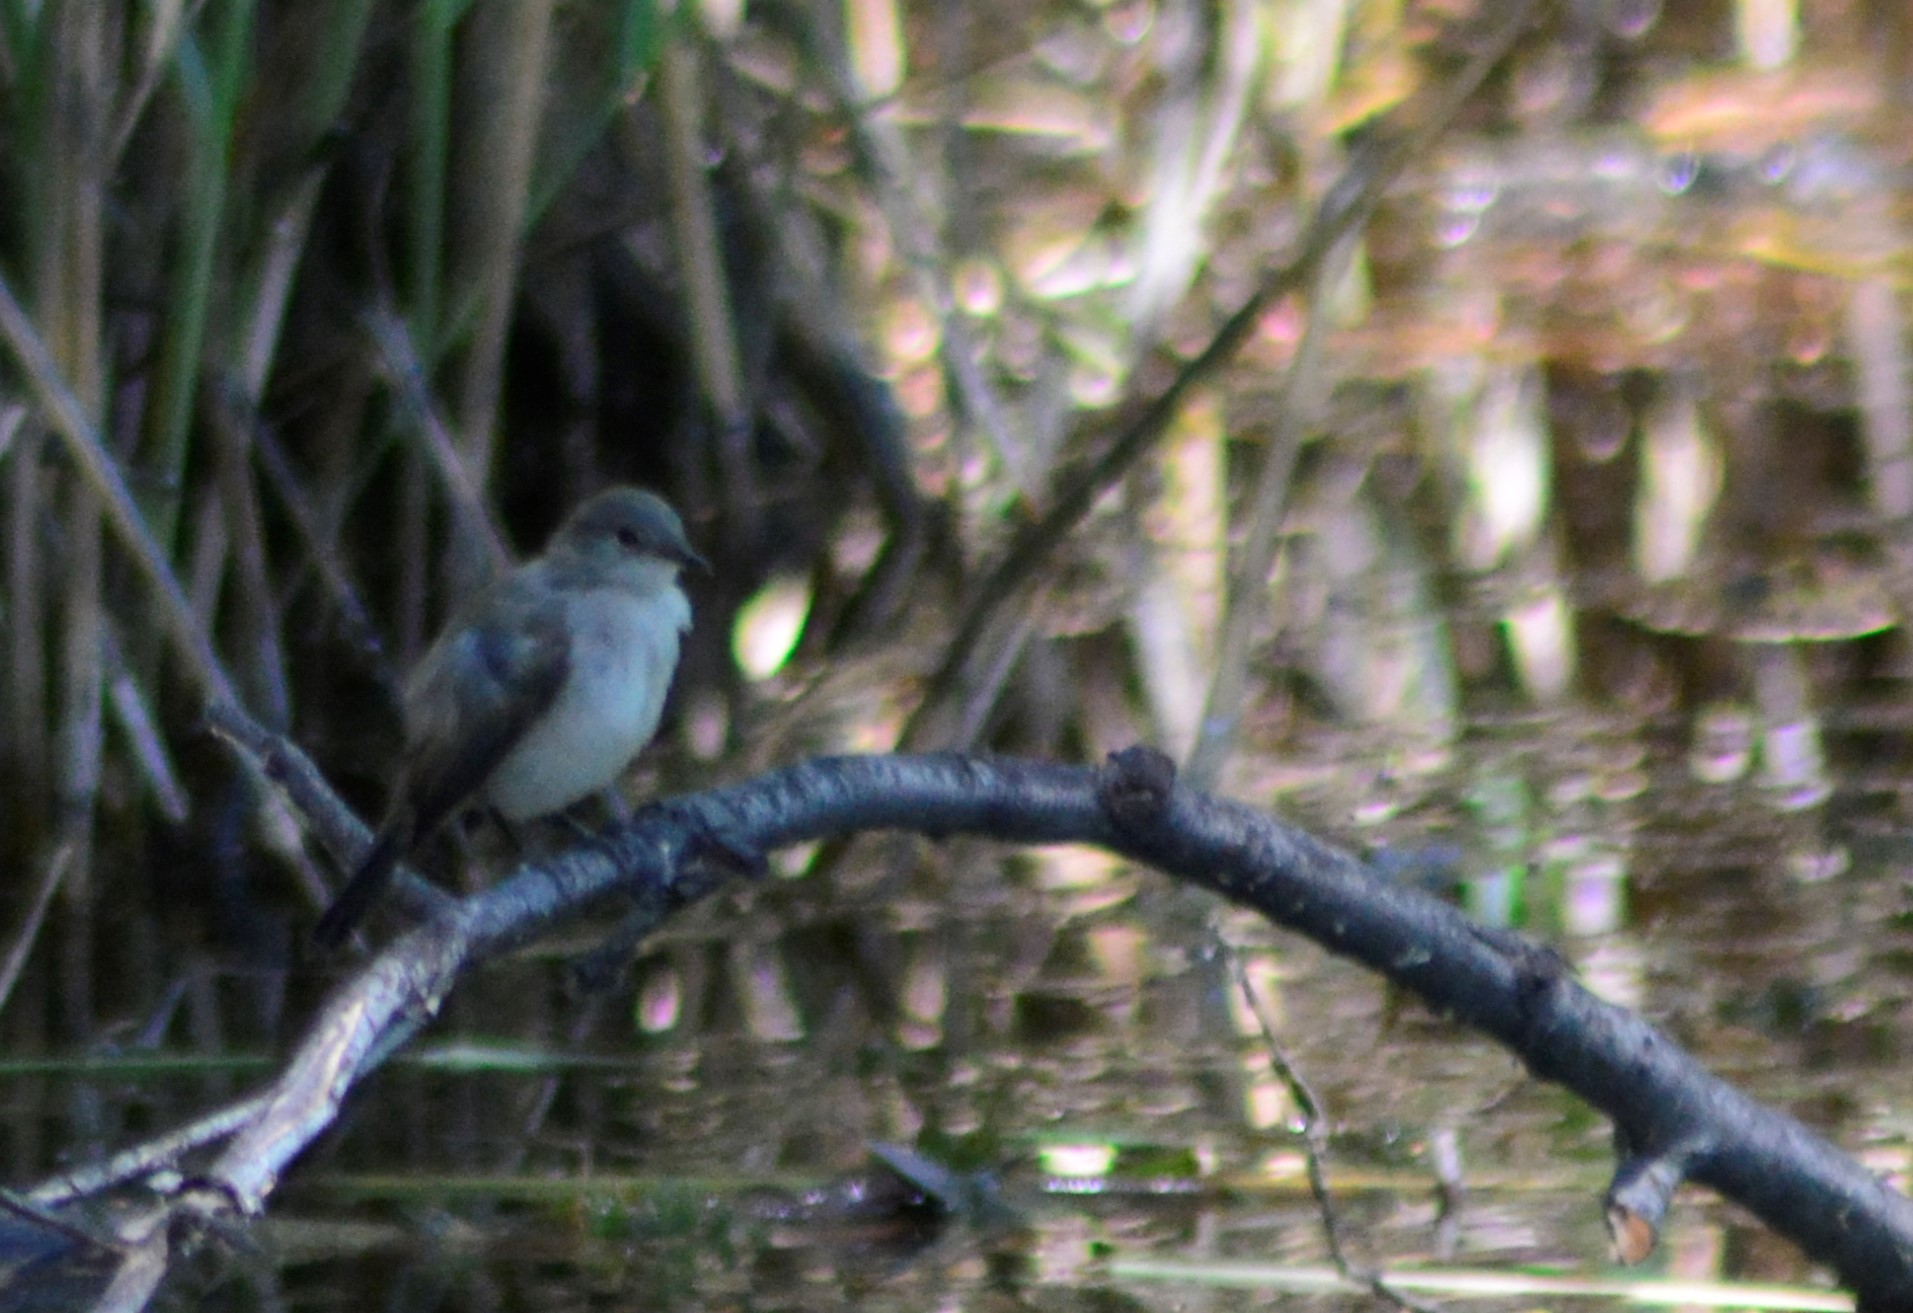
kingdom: Animalia
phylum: Chordata
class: Aves
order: Passeriformes
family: Tyrannidae
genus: Serpophaga
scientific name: Serpophaga nigricans
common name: Sooty tyrannulet
